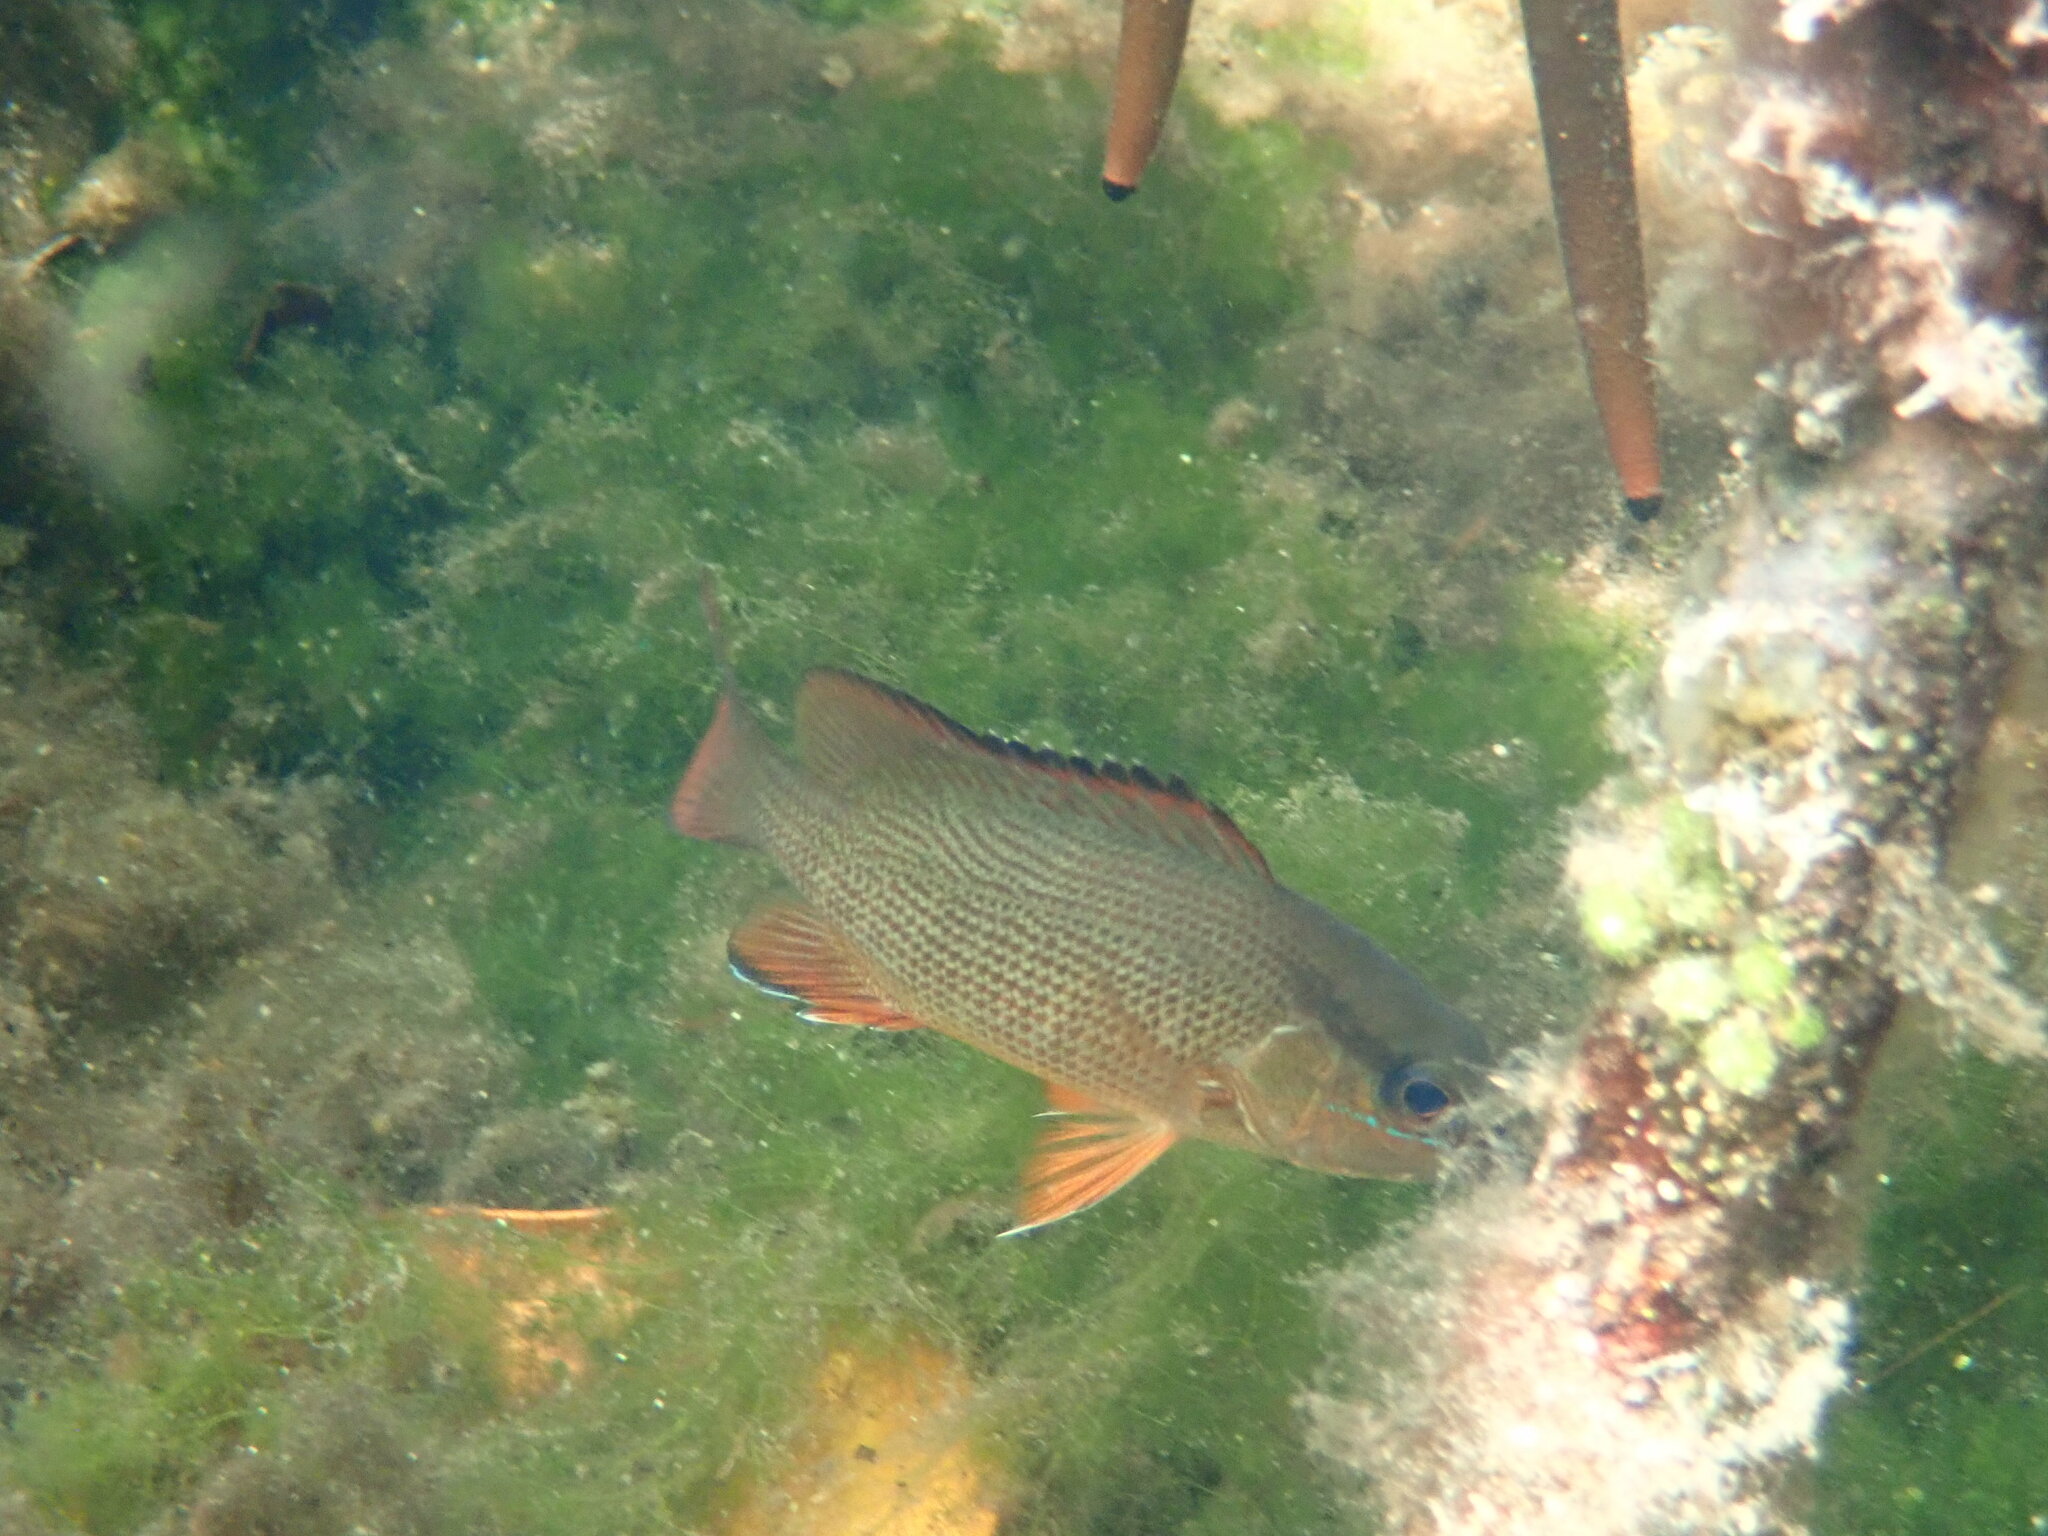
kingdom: Animalia
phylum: Chordata
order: Perciformes
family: Lutjanidae
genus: Lutjanus
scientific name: Lutjanus griseus
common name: Gray snapper
